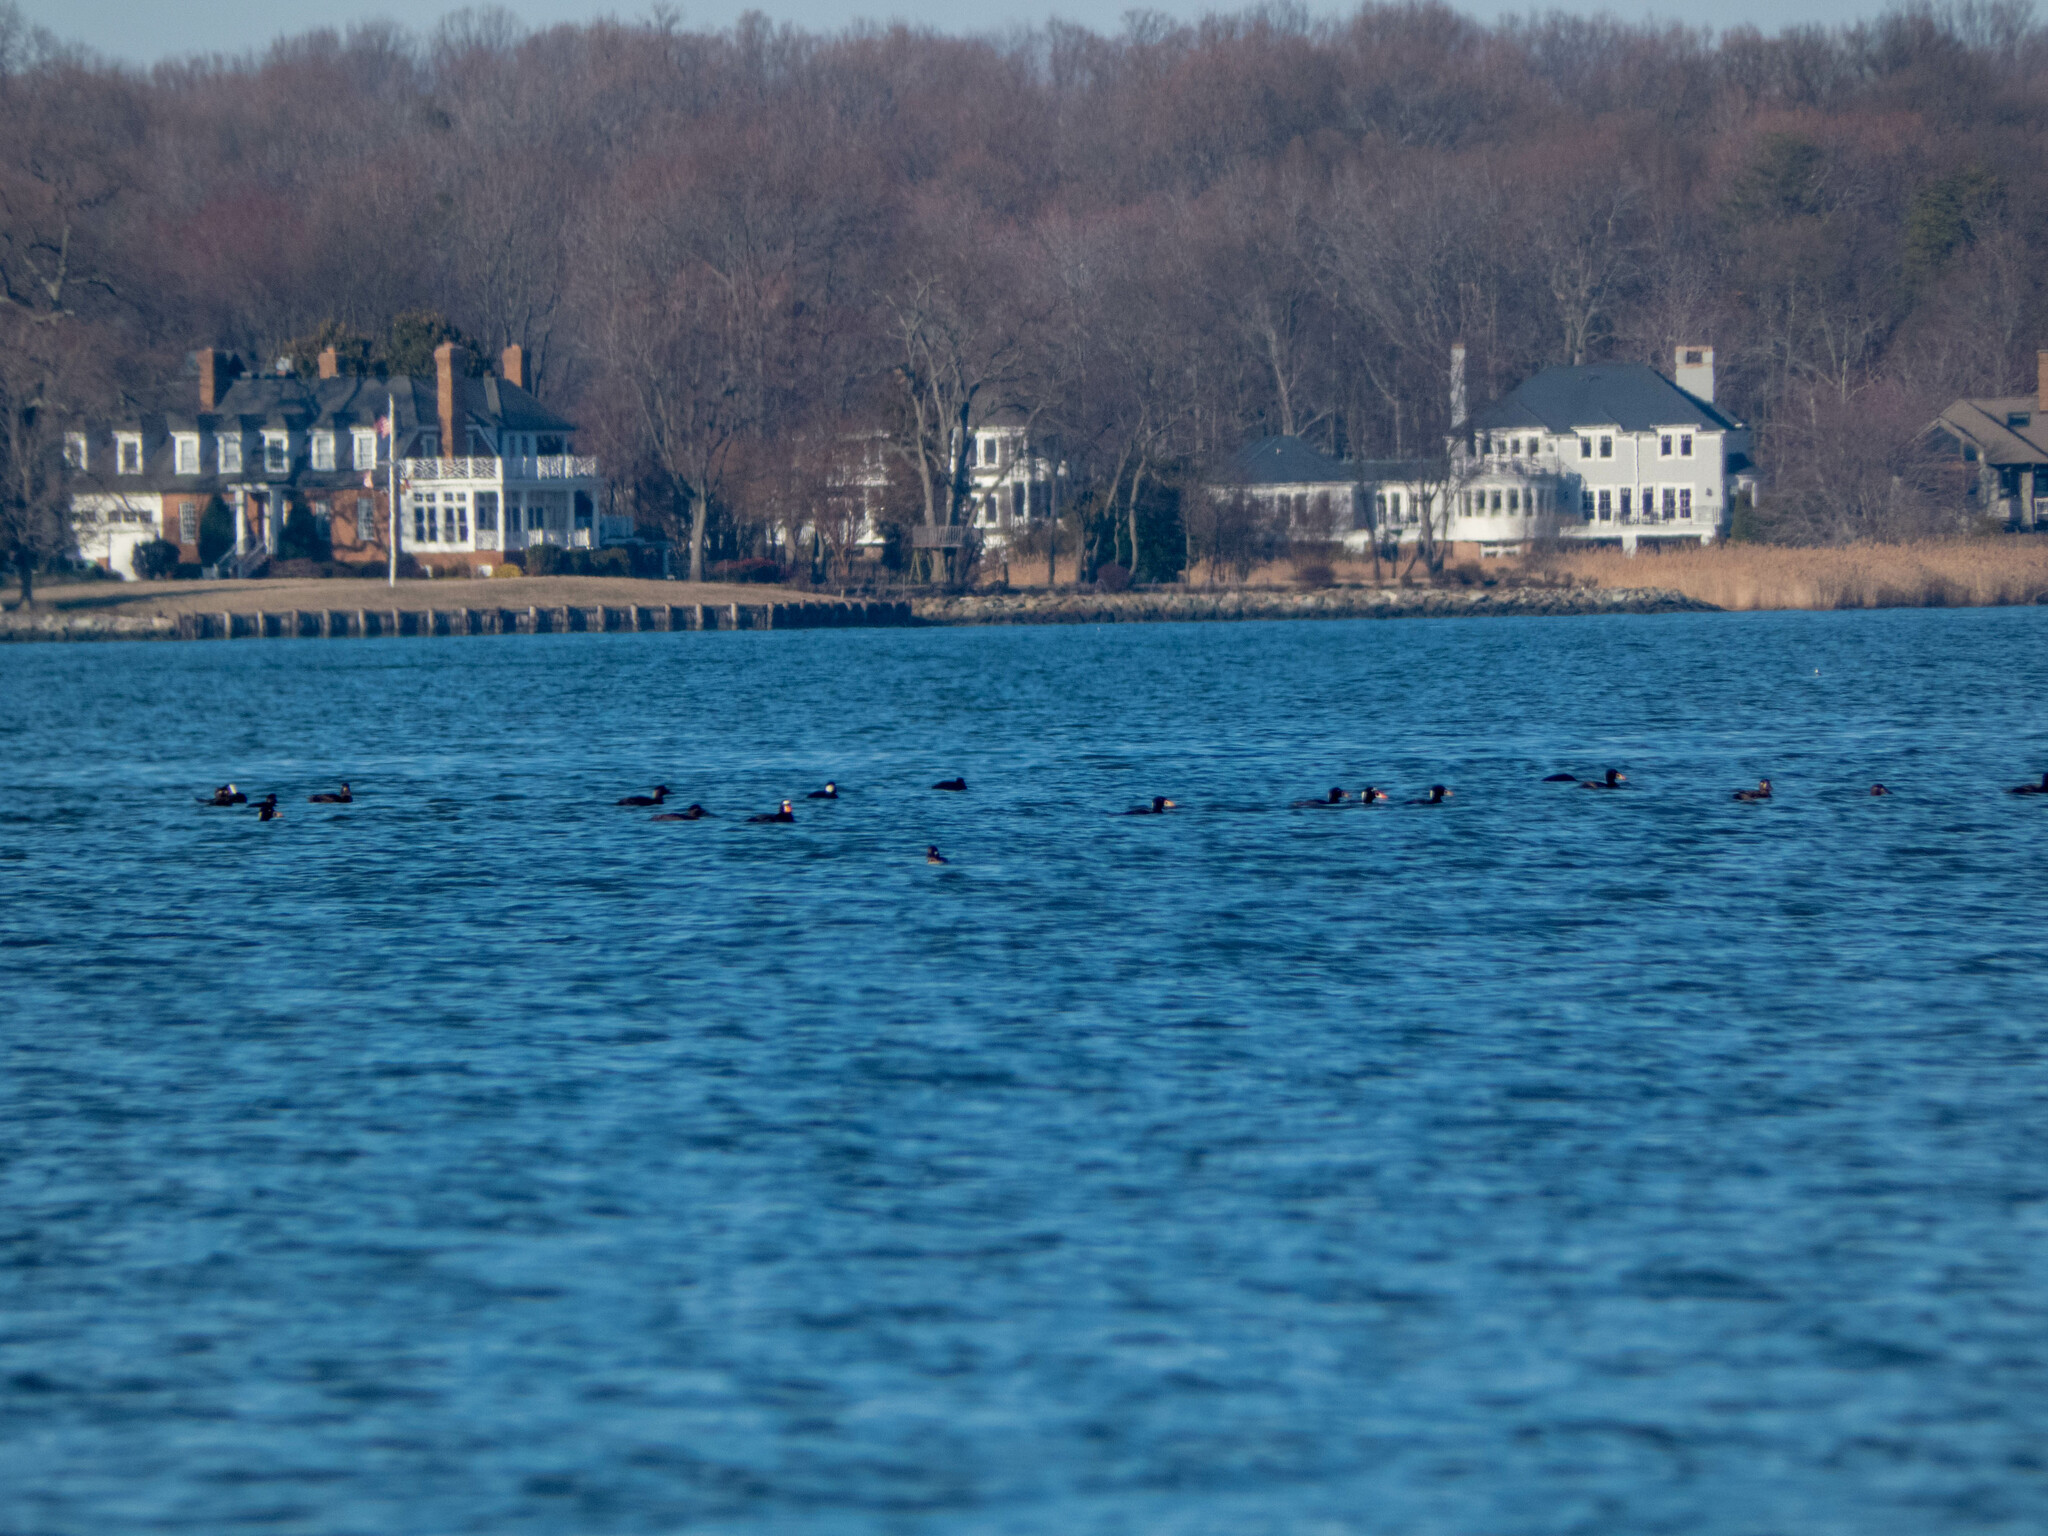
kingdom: Animalia
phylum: Chordata
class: Aves
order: Anseriformes
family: Anatidae
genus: Melanitta
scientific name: Melanitta perspicillata
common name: Surf scoter
